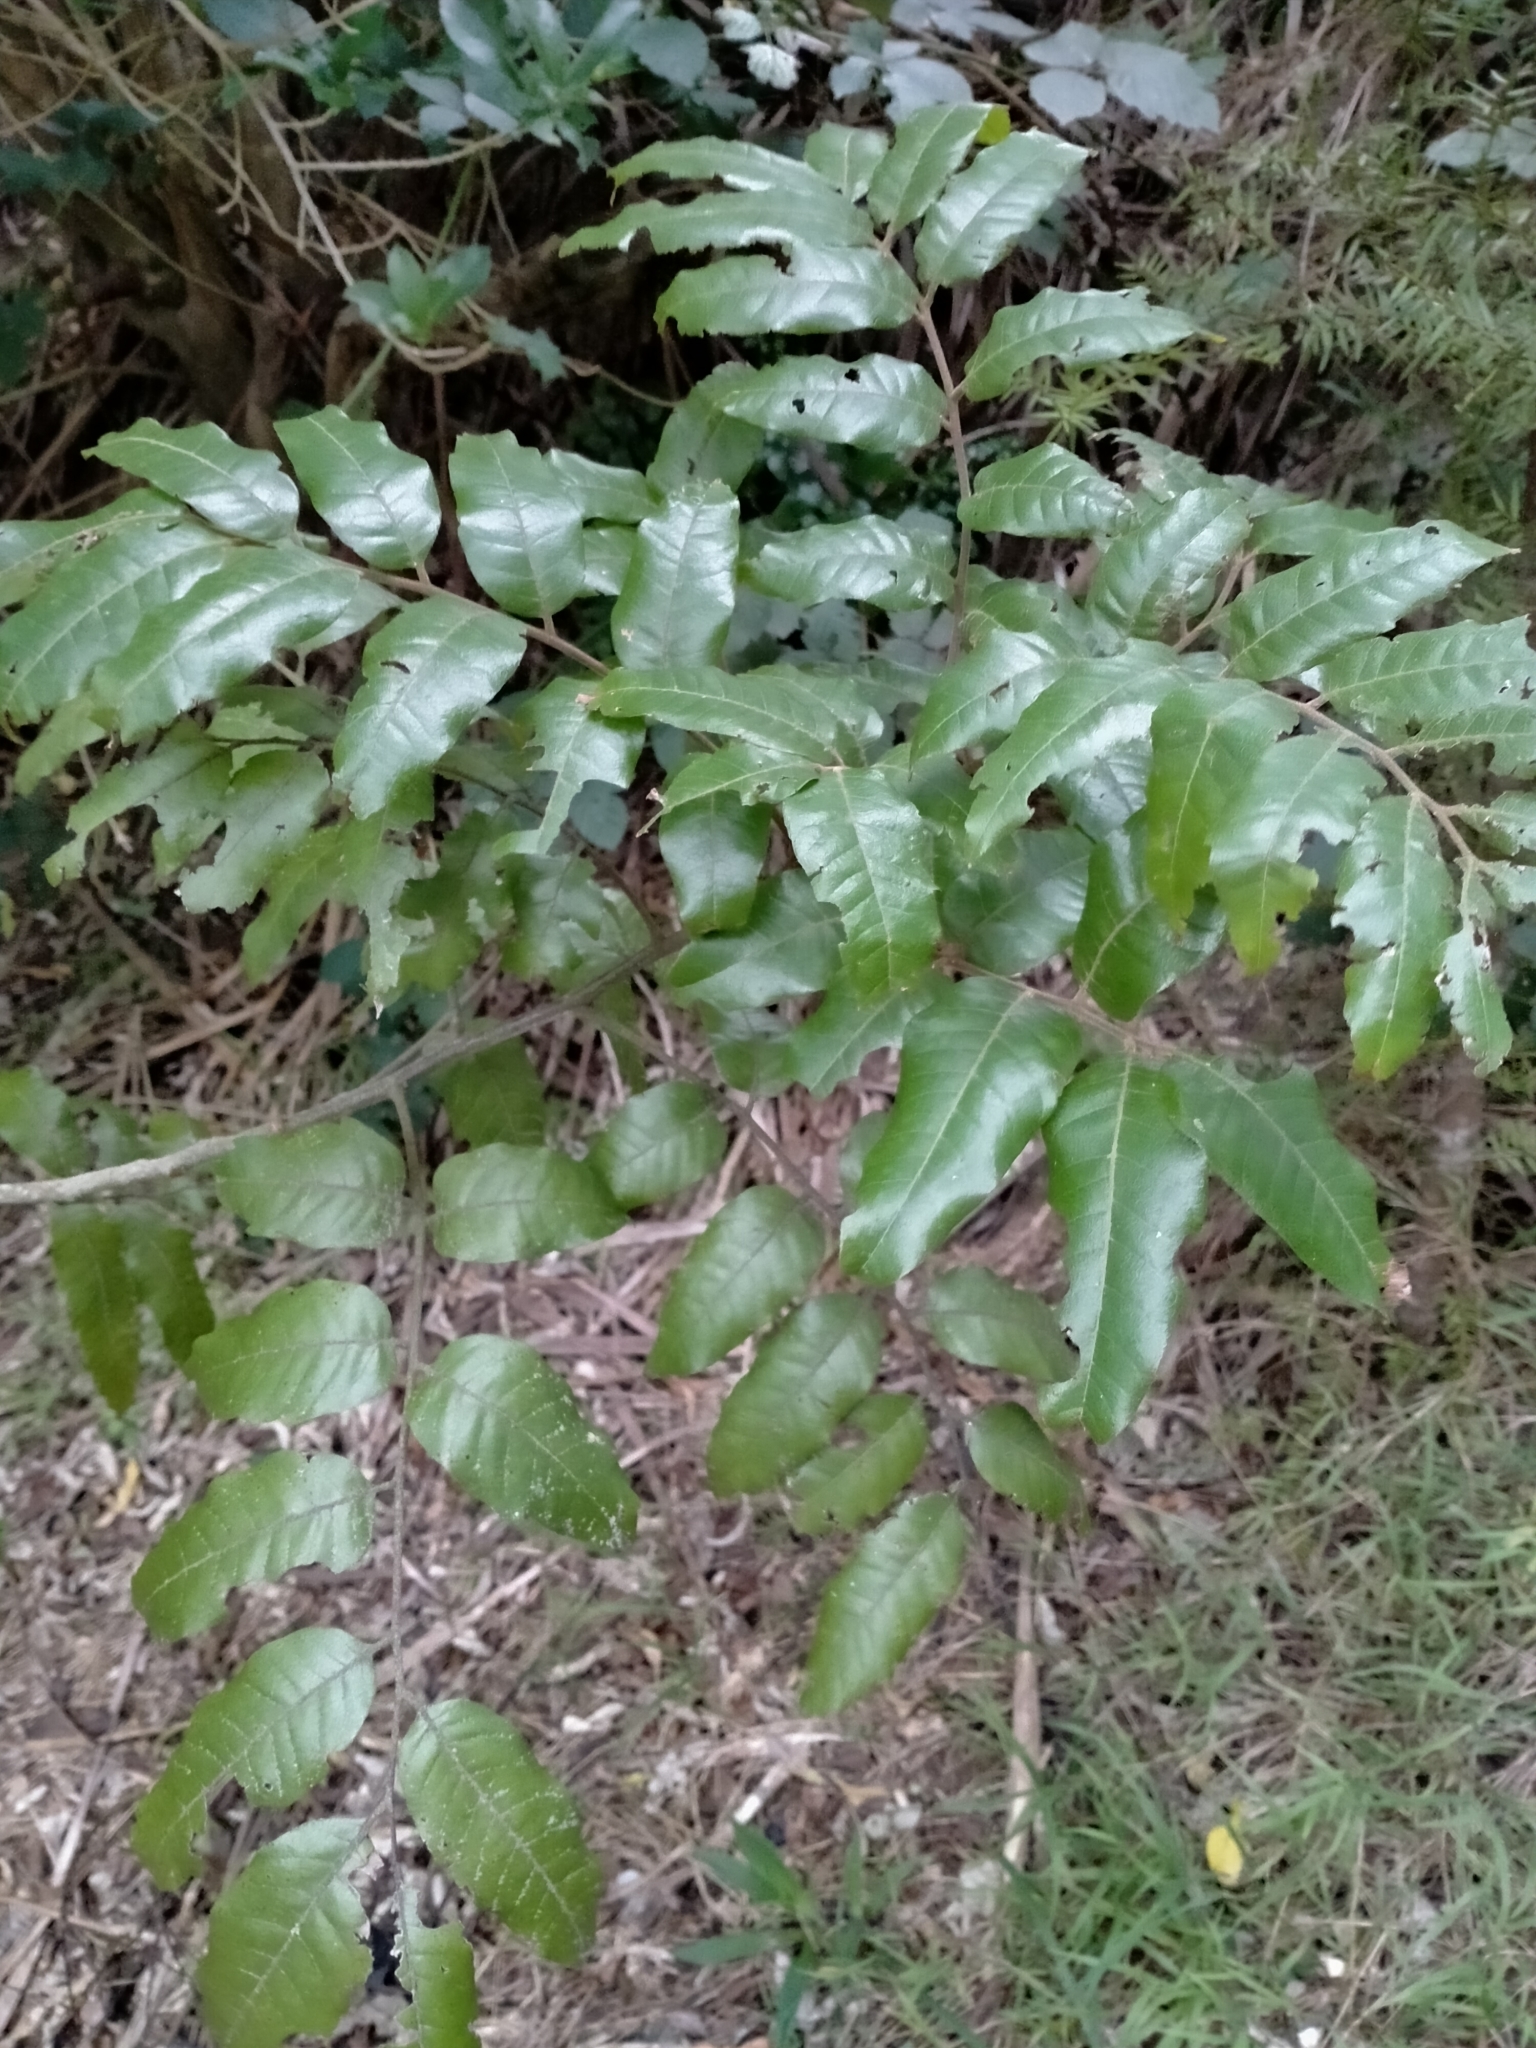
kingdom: Plantae
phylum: Tracheophyta
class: Magnoliopsida
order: Sapindales
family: Sapindaceae
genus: Alectryon
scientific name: Alectryon excelsus
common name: Three kings titoki
